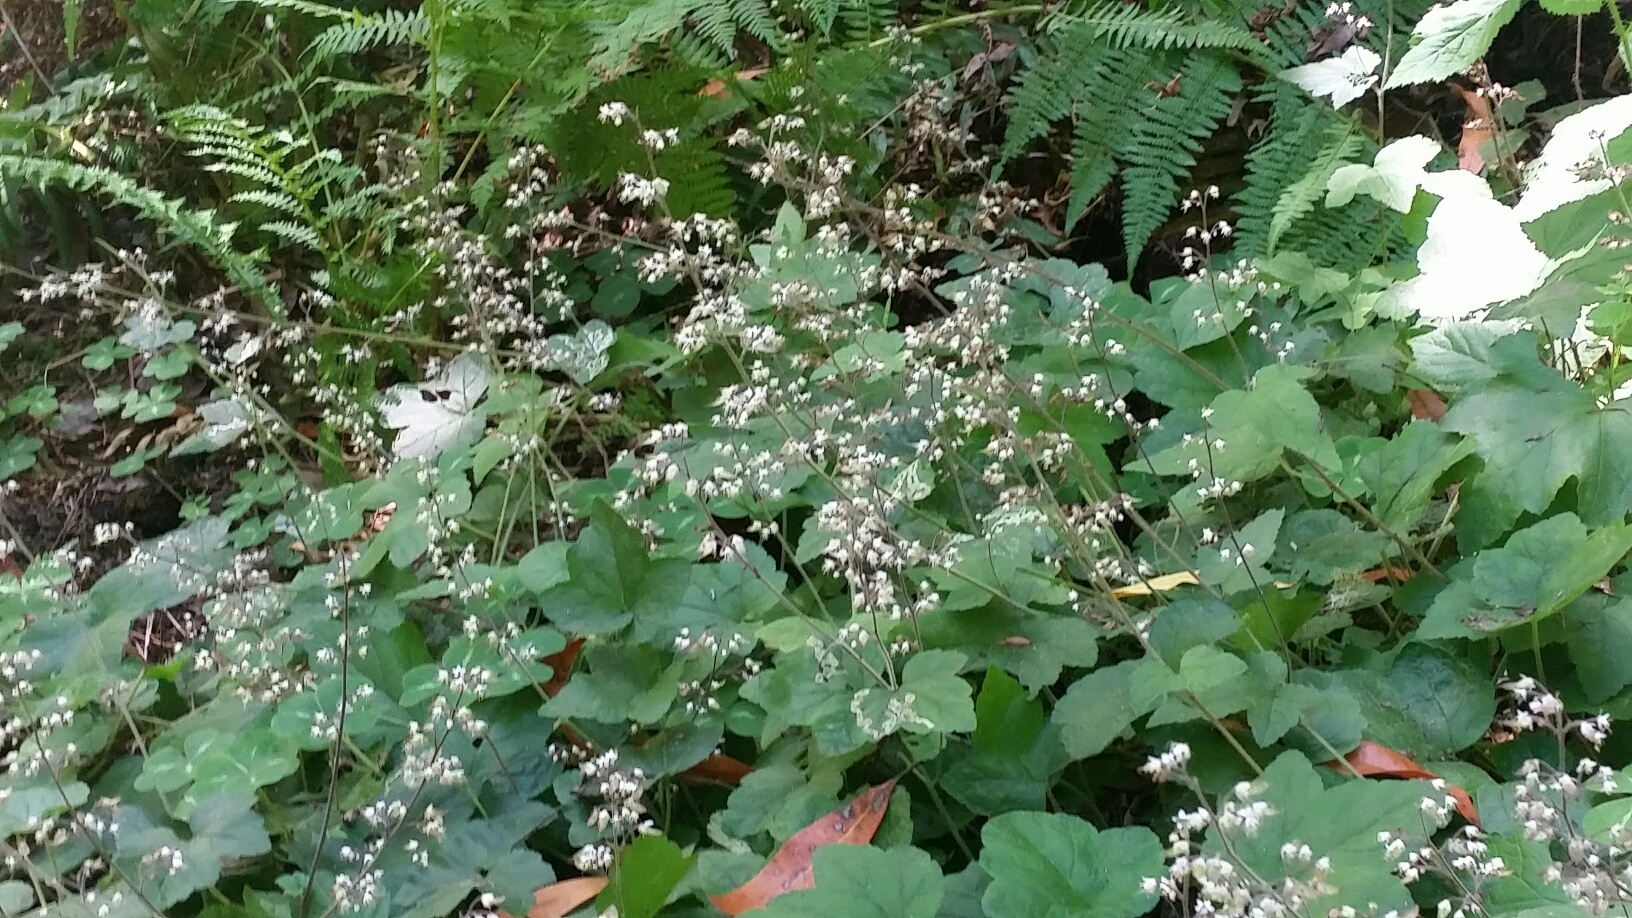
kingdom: Plantae
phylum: Tracheophyta
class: Magnoliopsida
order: Saxifragales
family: Saxifragaceae
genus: Tiarella
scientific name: Tiarella trifoliata
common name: Sugar-scoop
